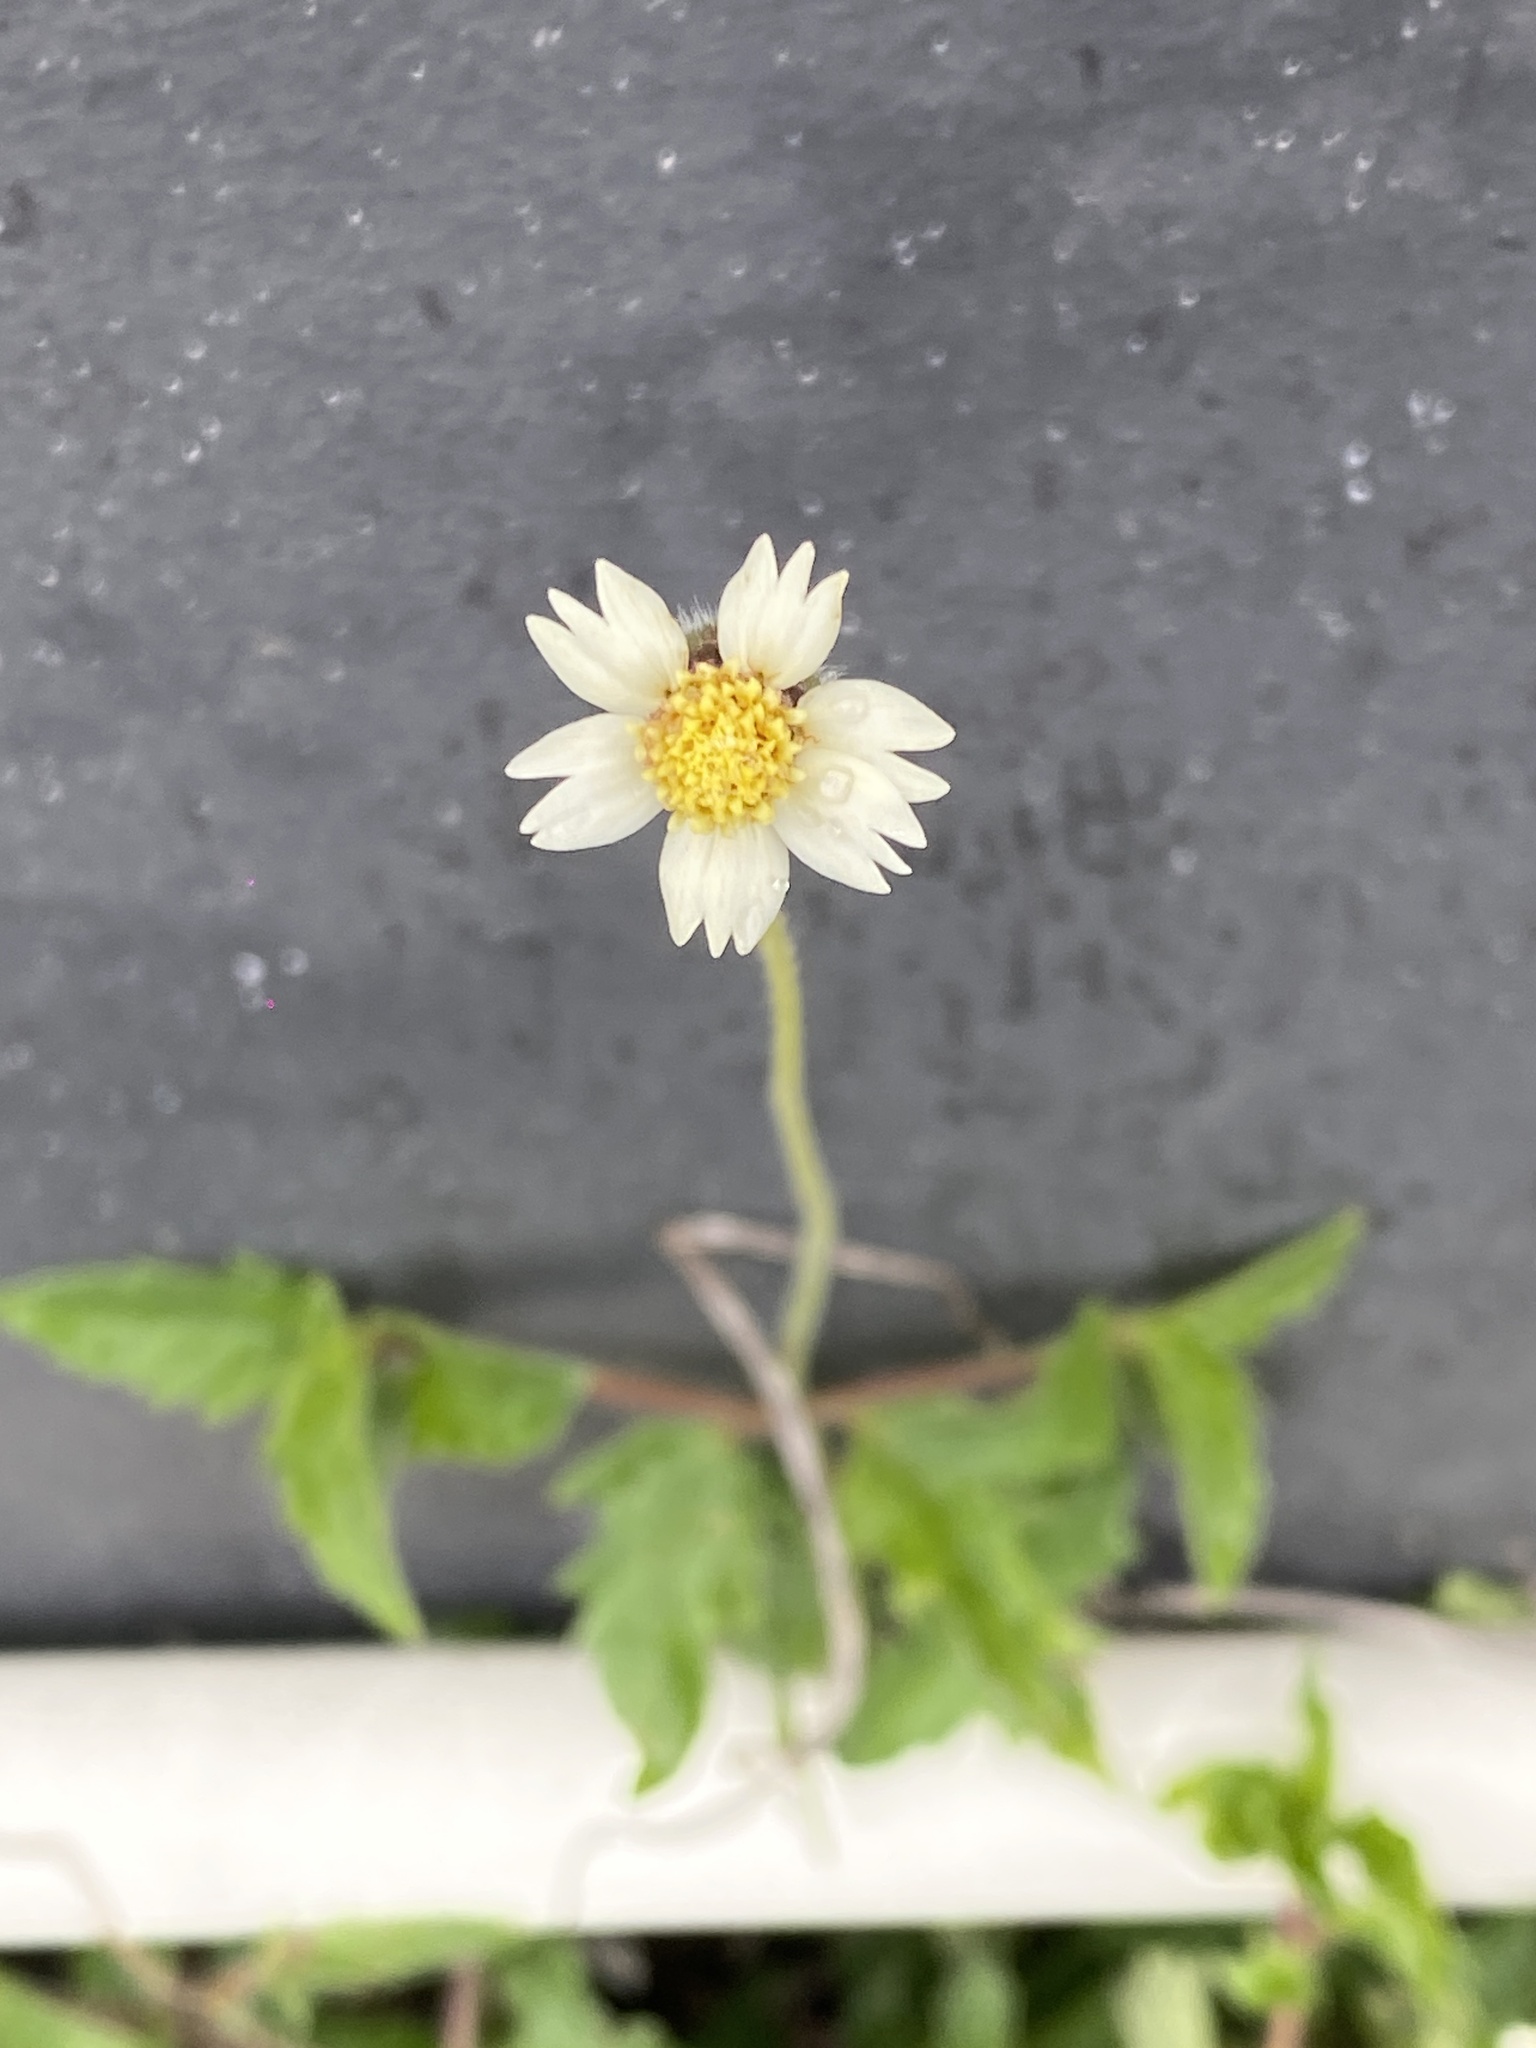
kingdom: Plantae
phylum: Tracheophyta
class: Magnoliopsida
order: Asterales
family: Asteraceae
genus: Tridax
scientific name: Tridax procumbens
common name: Coatbuttons
